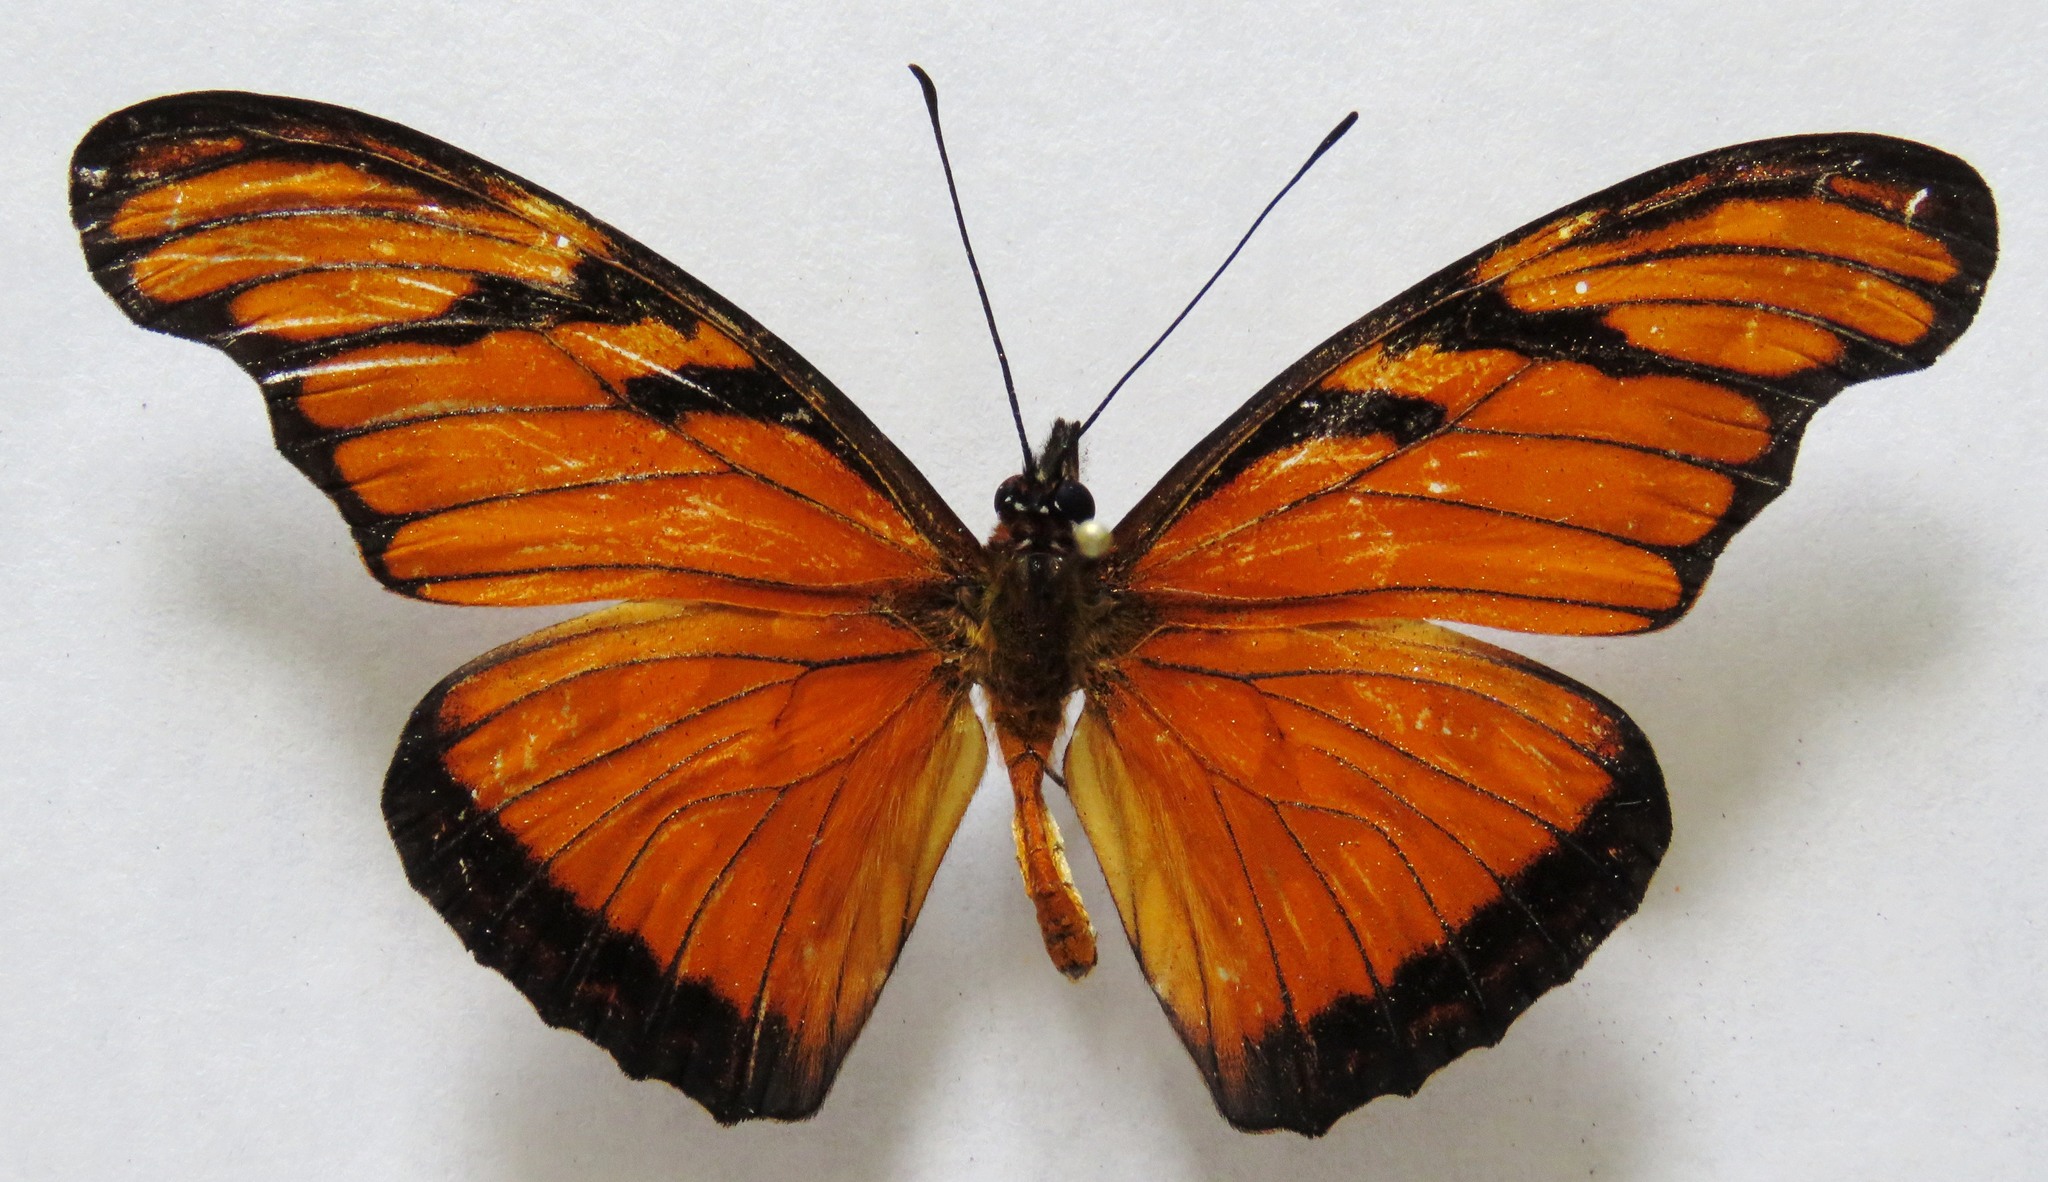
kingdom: Animalia
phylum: Arthropoda
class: Insecta
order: Lepidoptera
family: Nymphalidae
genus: Dione
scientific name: Dione juno
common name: Juno silverspot
